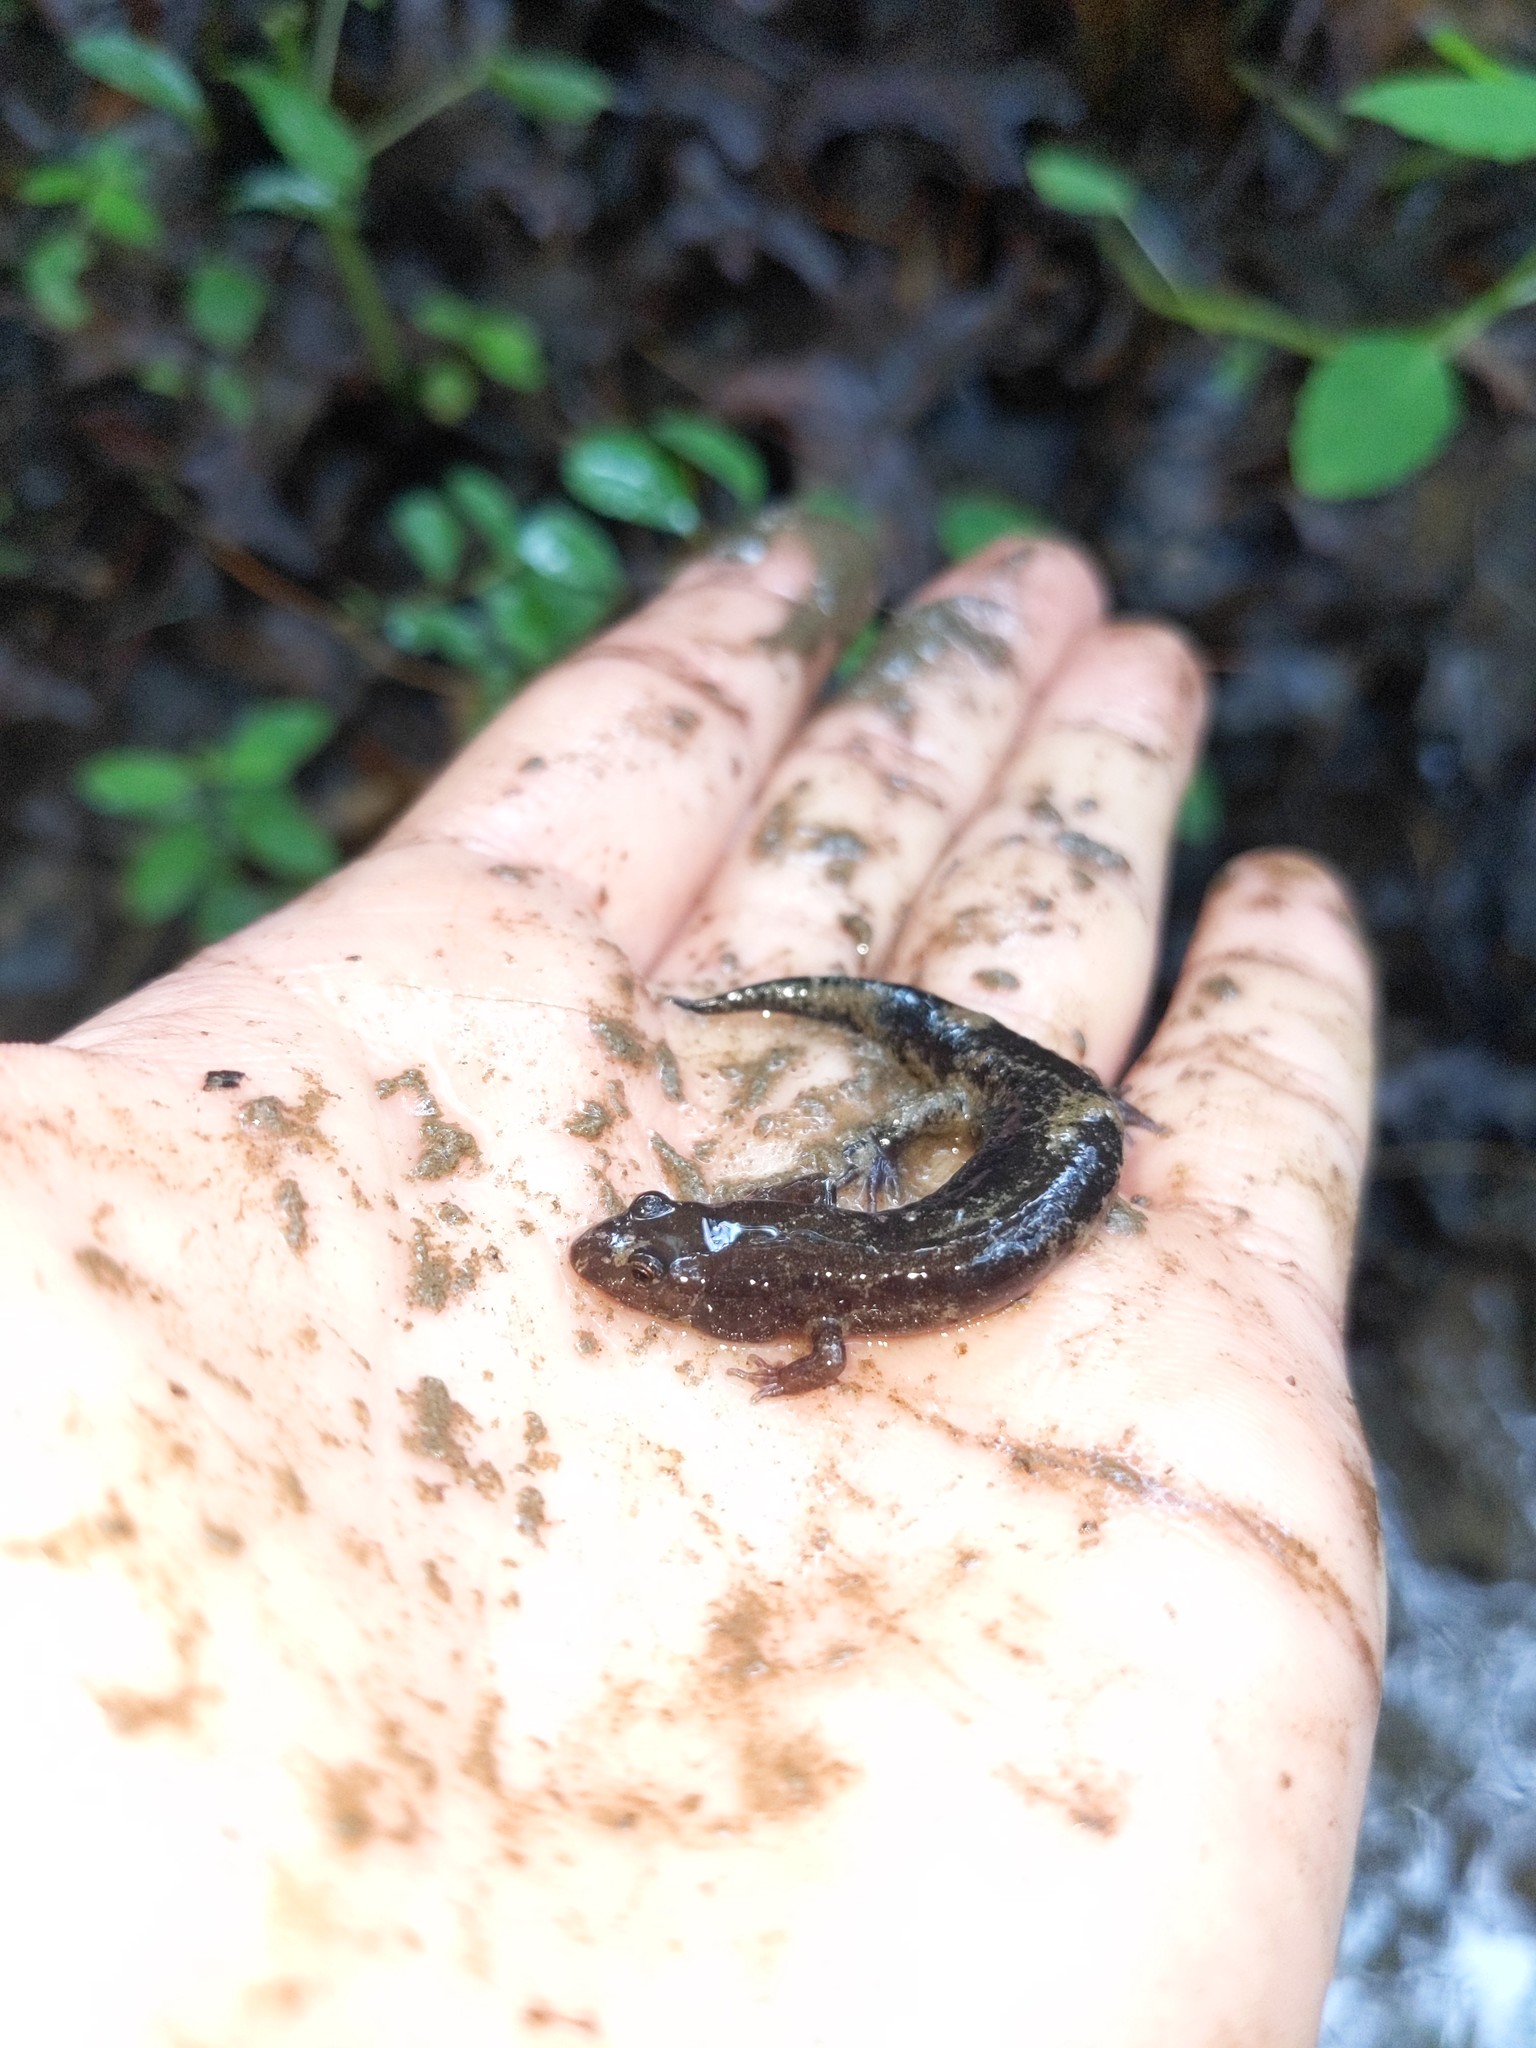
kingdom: Animalia
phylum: Chordata
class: Amphibia
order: Caudata
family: Plethodontidae
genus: Desmognathus
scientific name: Desmognathus fuscus
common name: Northern dusky salamander
